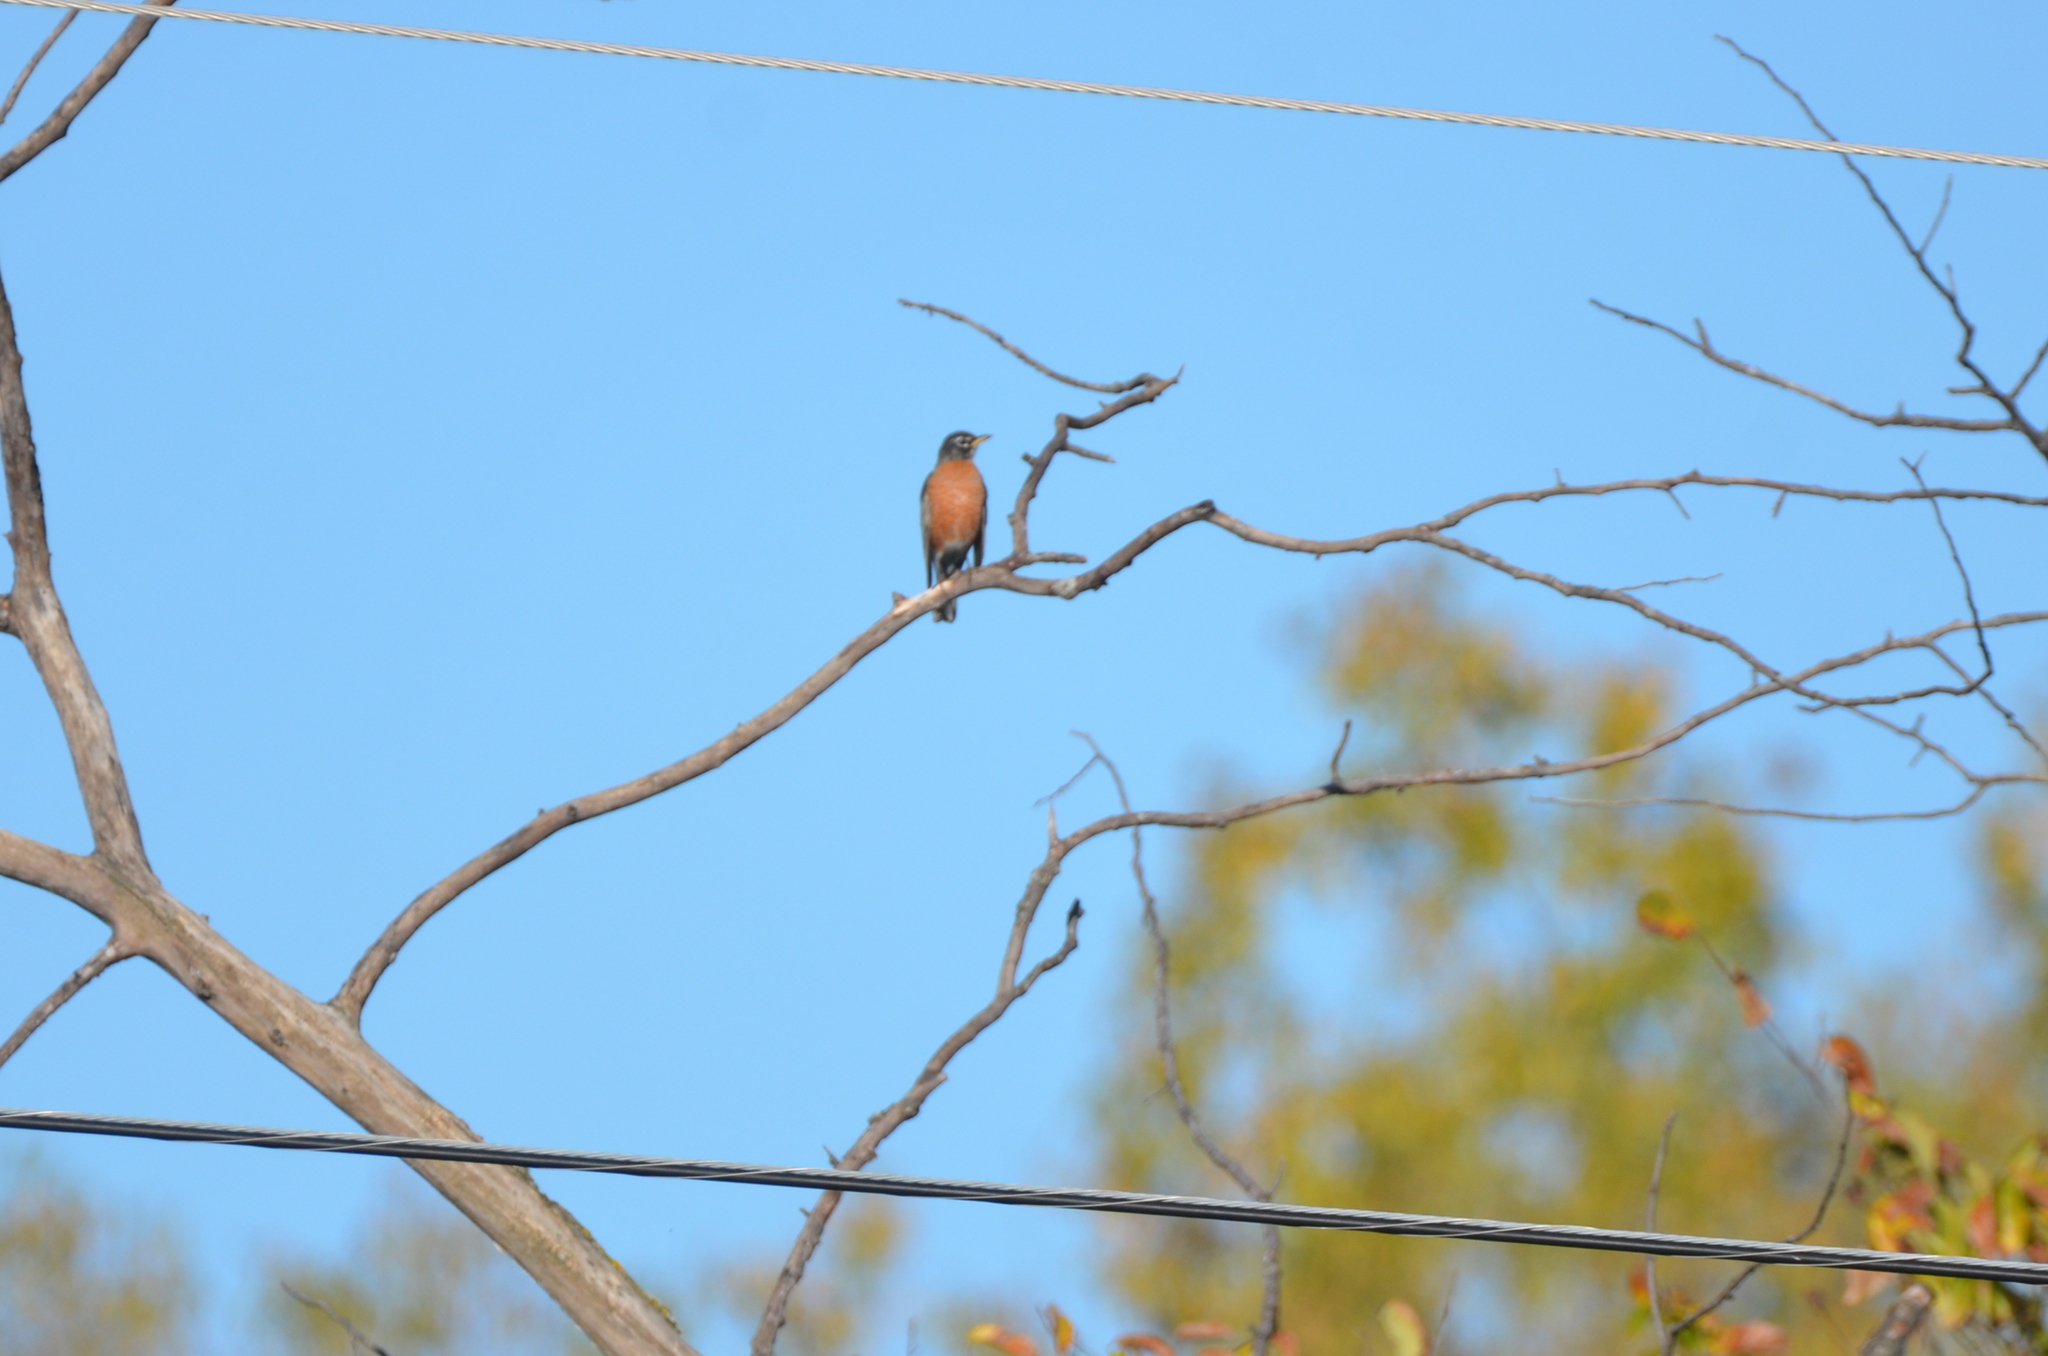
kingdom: Animalia
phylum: Chordata
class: Aves
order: Passeriformes
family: Turdidae
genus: Turdus
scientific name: Turdus migratorius
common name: American robin
